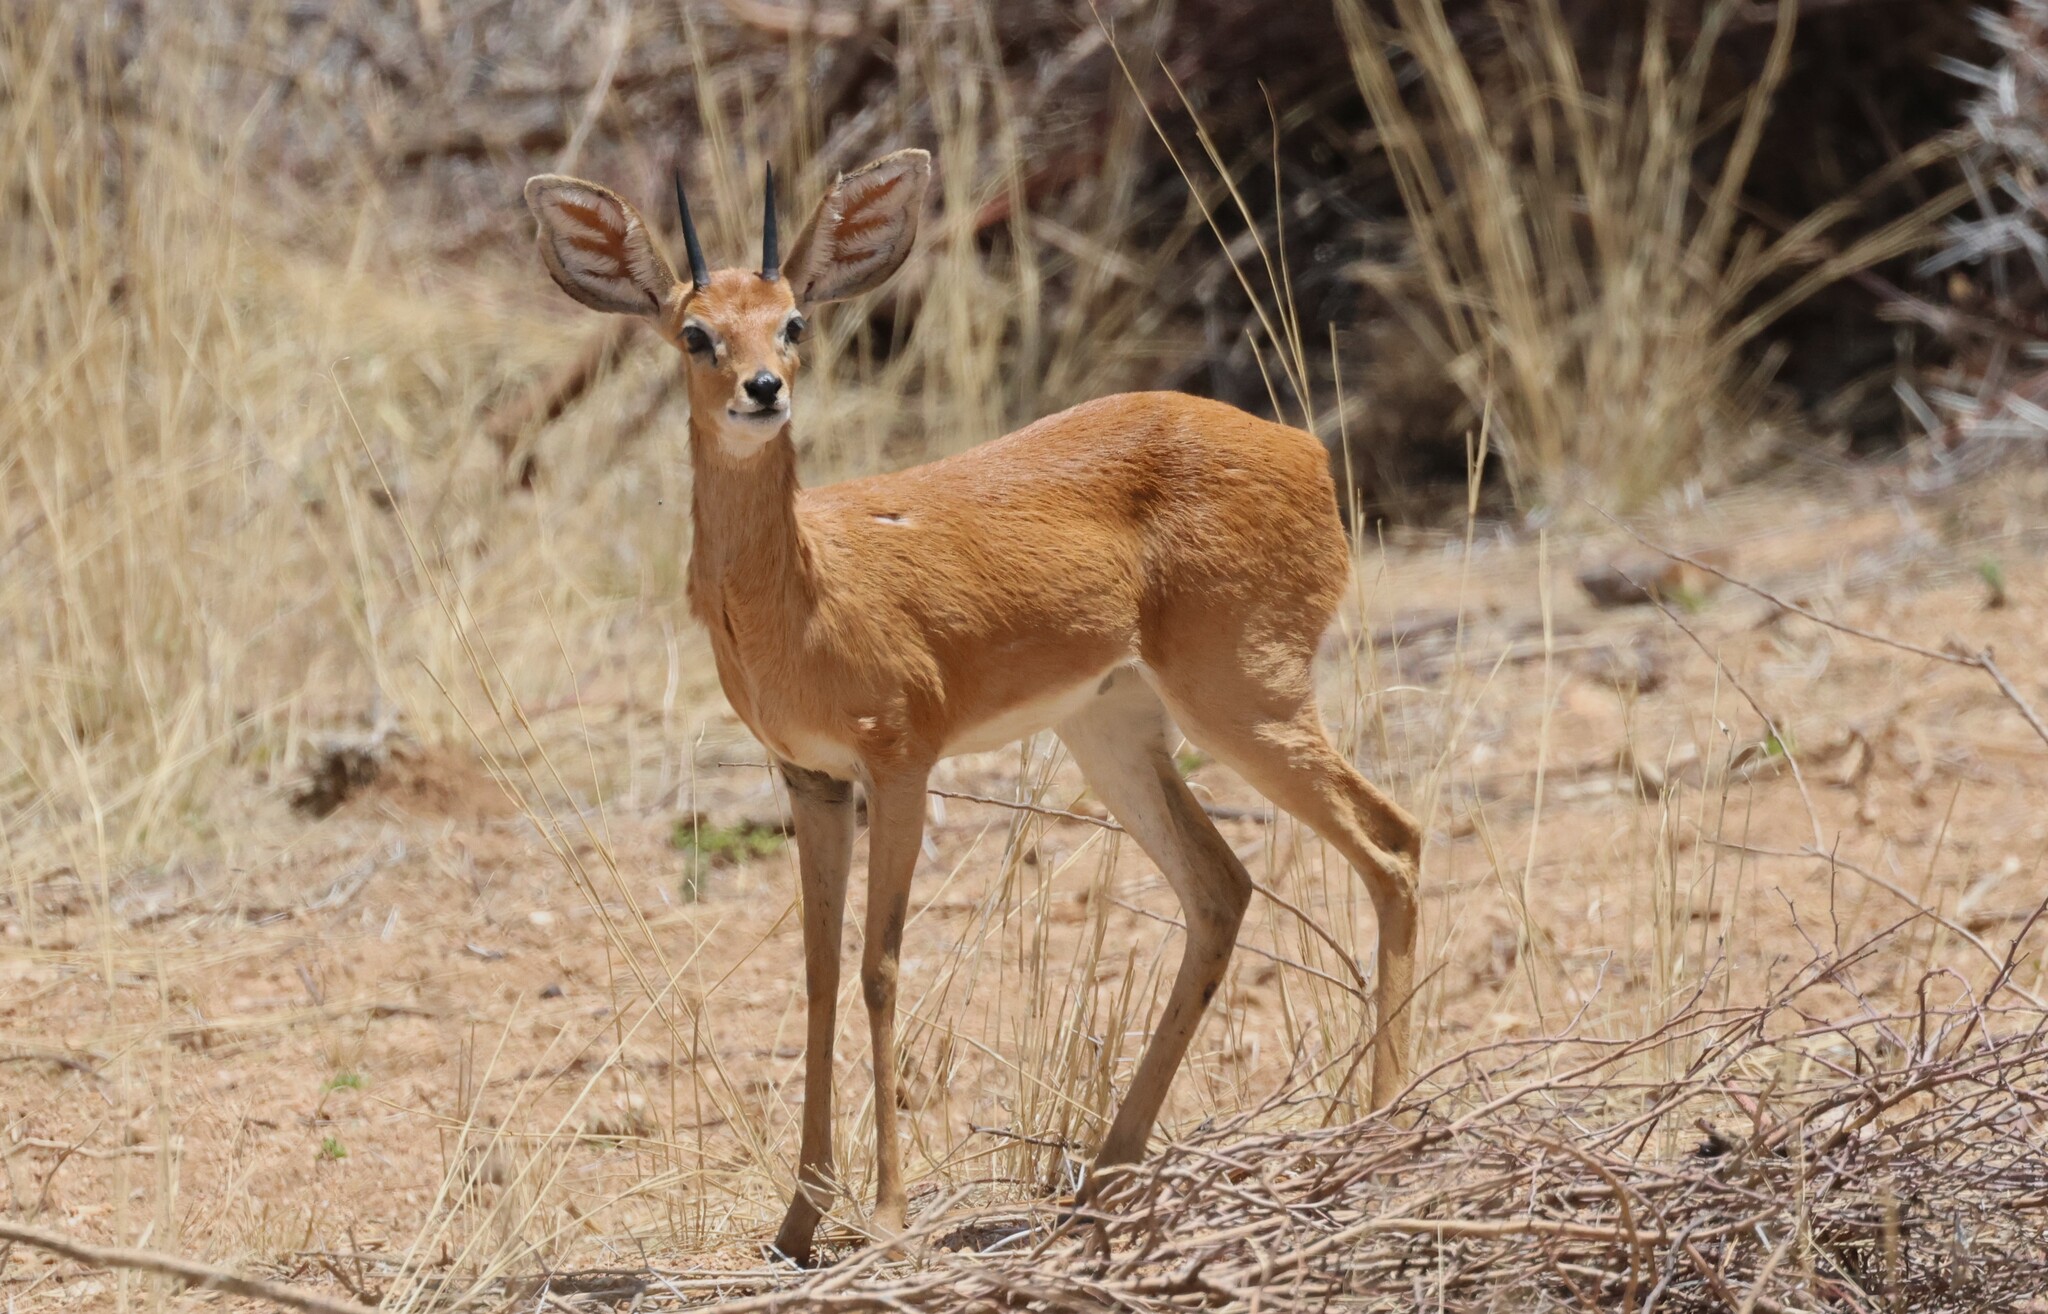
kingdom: Animalia
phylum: Chordata
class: Mammalia
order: Artiodactyla
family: Bovidae
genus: Raphicerus
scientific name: Raphicerus campestris
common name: Steenbok
